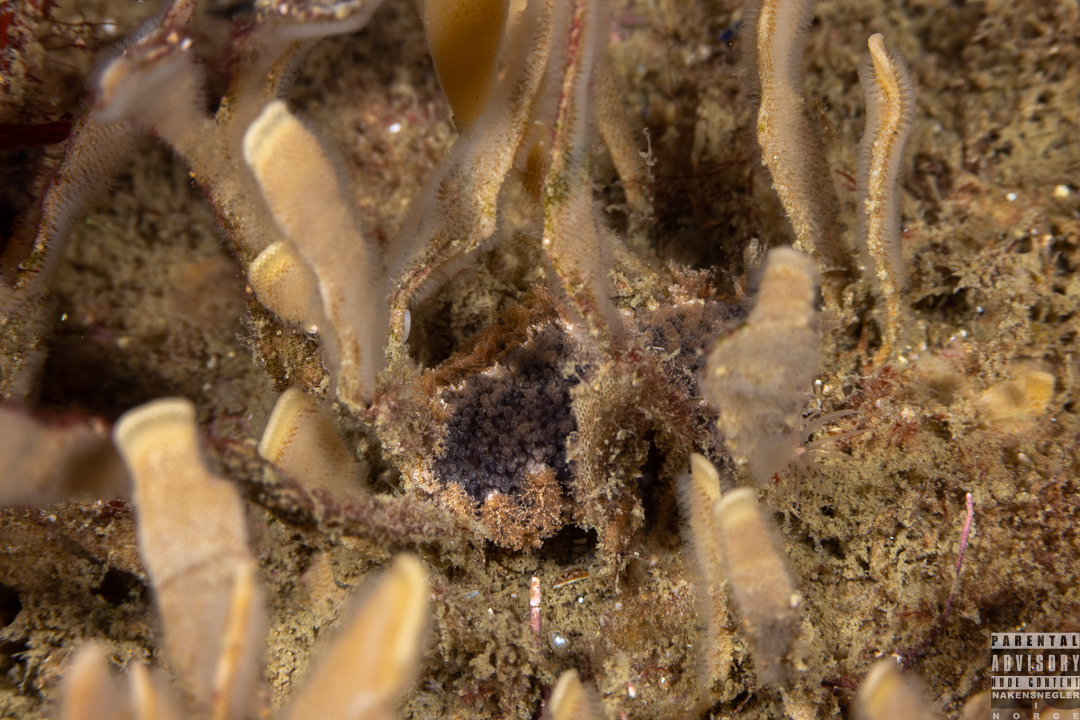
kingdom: Animalia
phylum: Mollusca
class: Gastropoda
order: Nudibranchia
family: Tritoniidae
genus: Tritonia
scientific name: Tritonia hombergii
